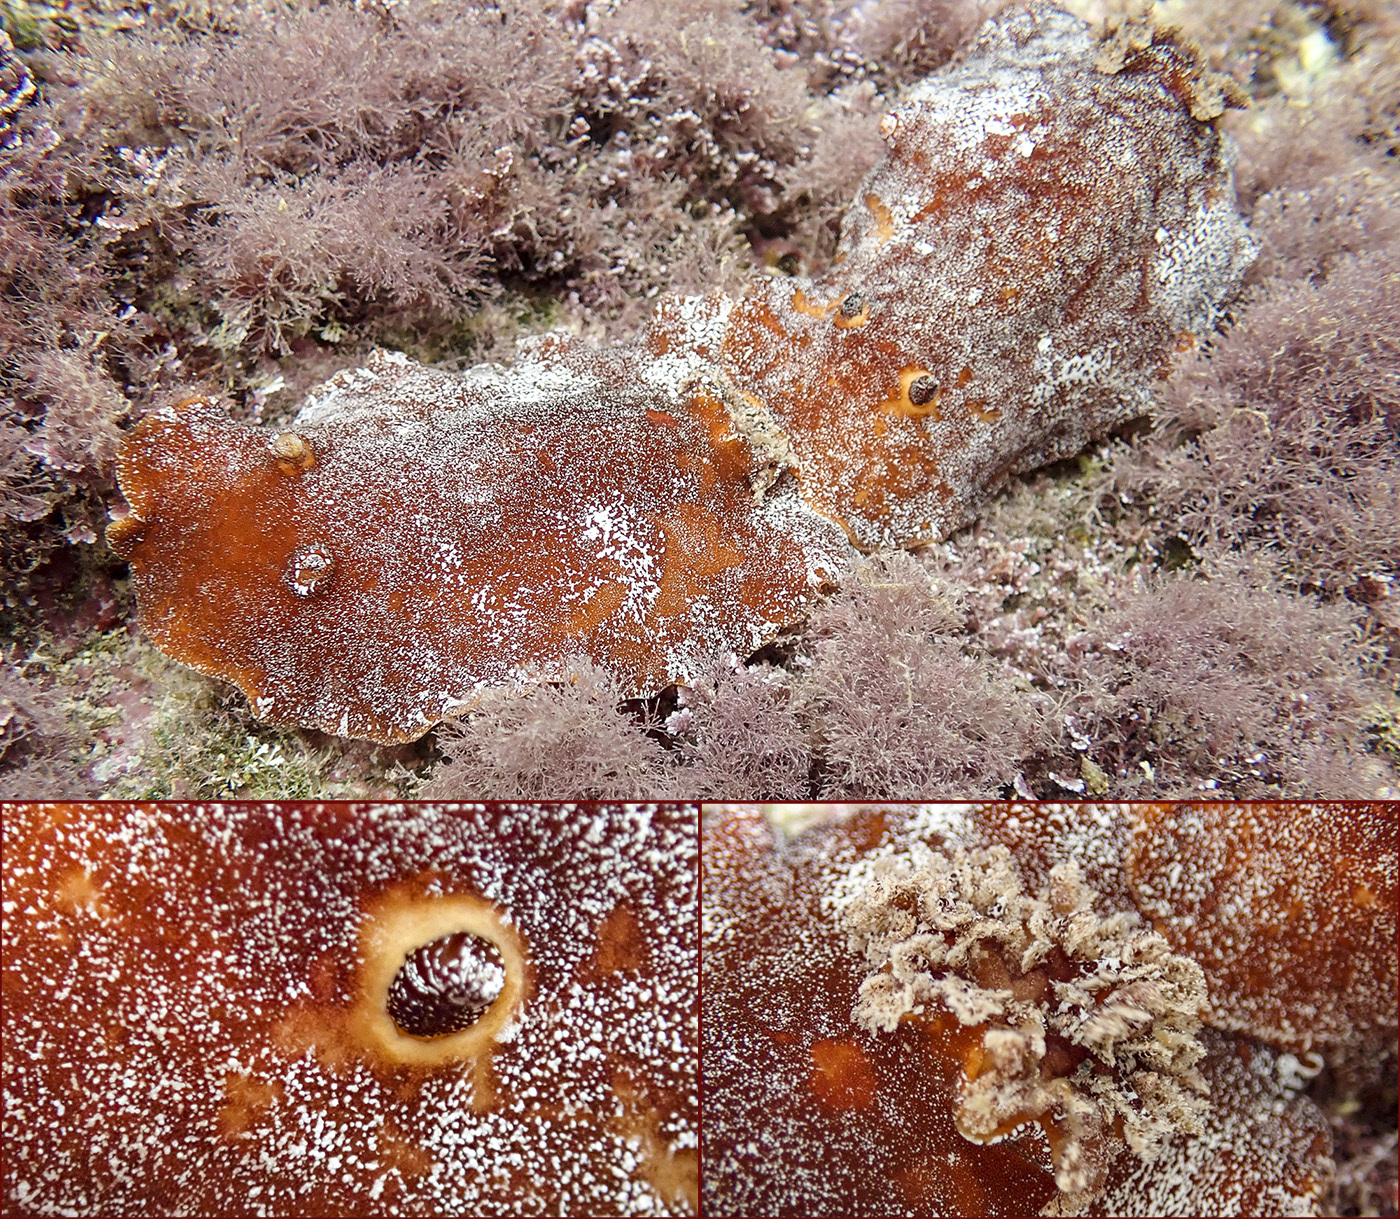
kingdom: Animalia
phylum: Mollusca
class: Gastropoda
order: Nudibranchia
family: Discodorididae
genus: Platydoris
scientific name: Platydoris argo
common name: Redbrown leathery doris
